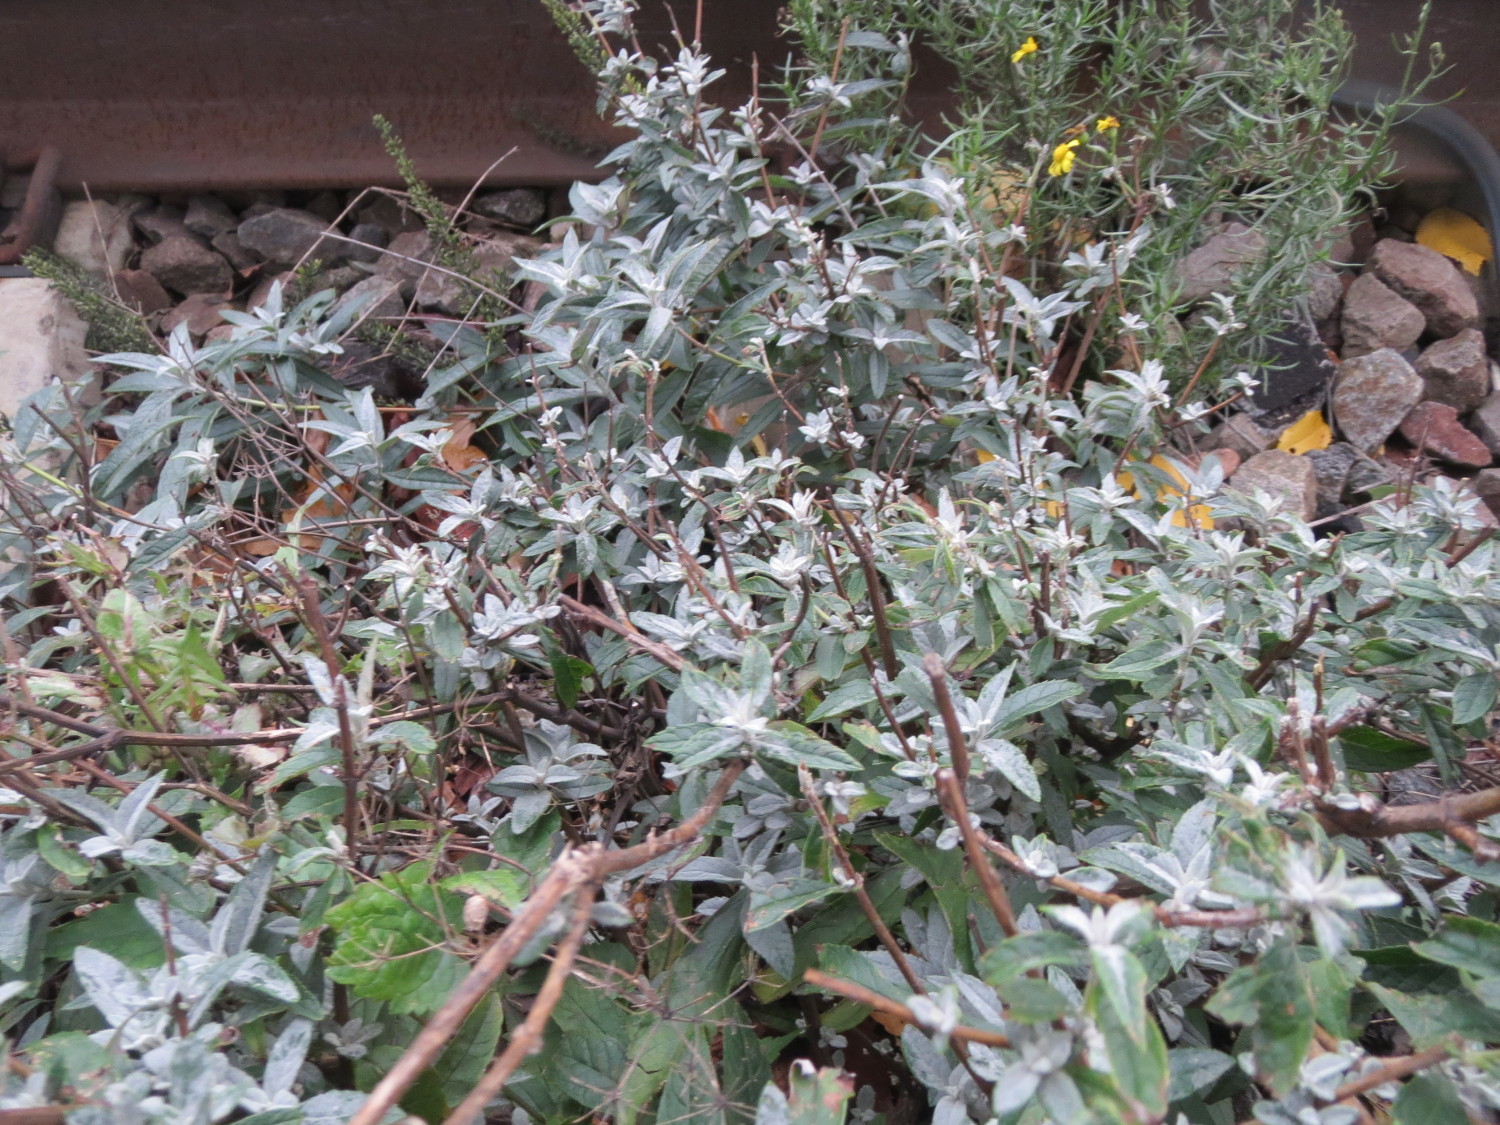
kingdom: Plantae
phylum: Tracheophyta
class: Magnoliopsida
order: Lamiales
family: Scrophulariaceae
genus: Buddleja
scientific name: Buddleja davidii
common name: Butterfly-bush
